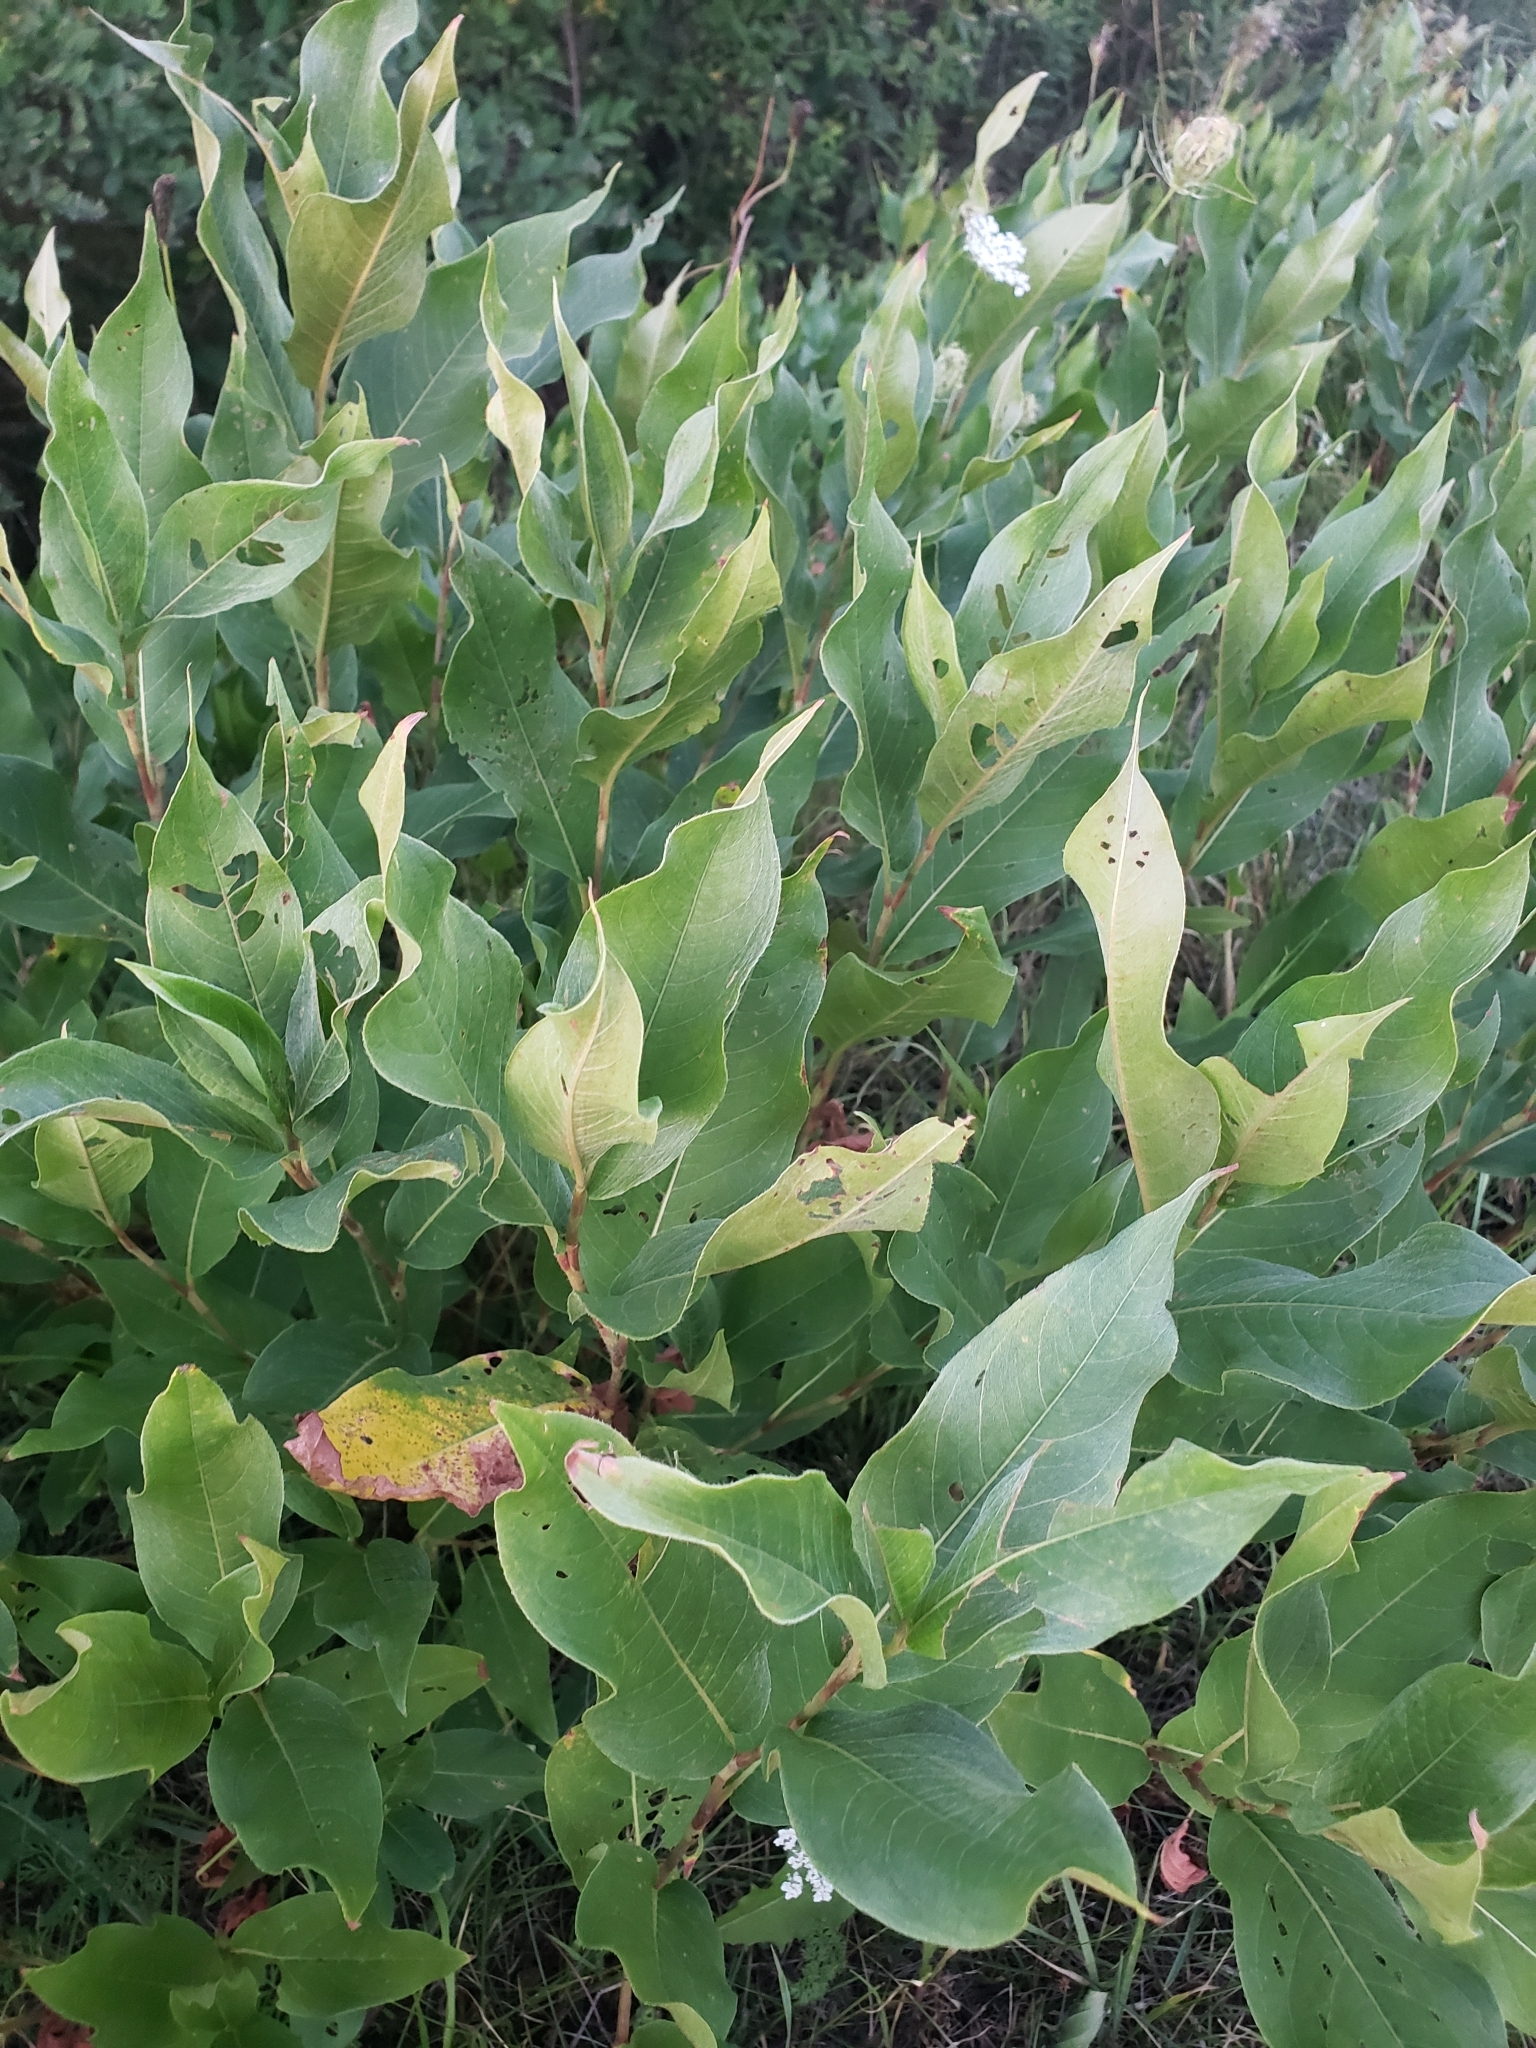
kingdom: Plantae
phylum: Tracheophyta
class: Magnoliopsida
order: Caryophyllales
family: Polygonaceae
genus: Persicaria
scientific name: Persicaria amphibia
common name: Amphibious bistort
